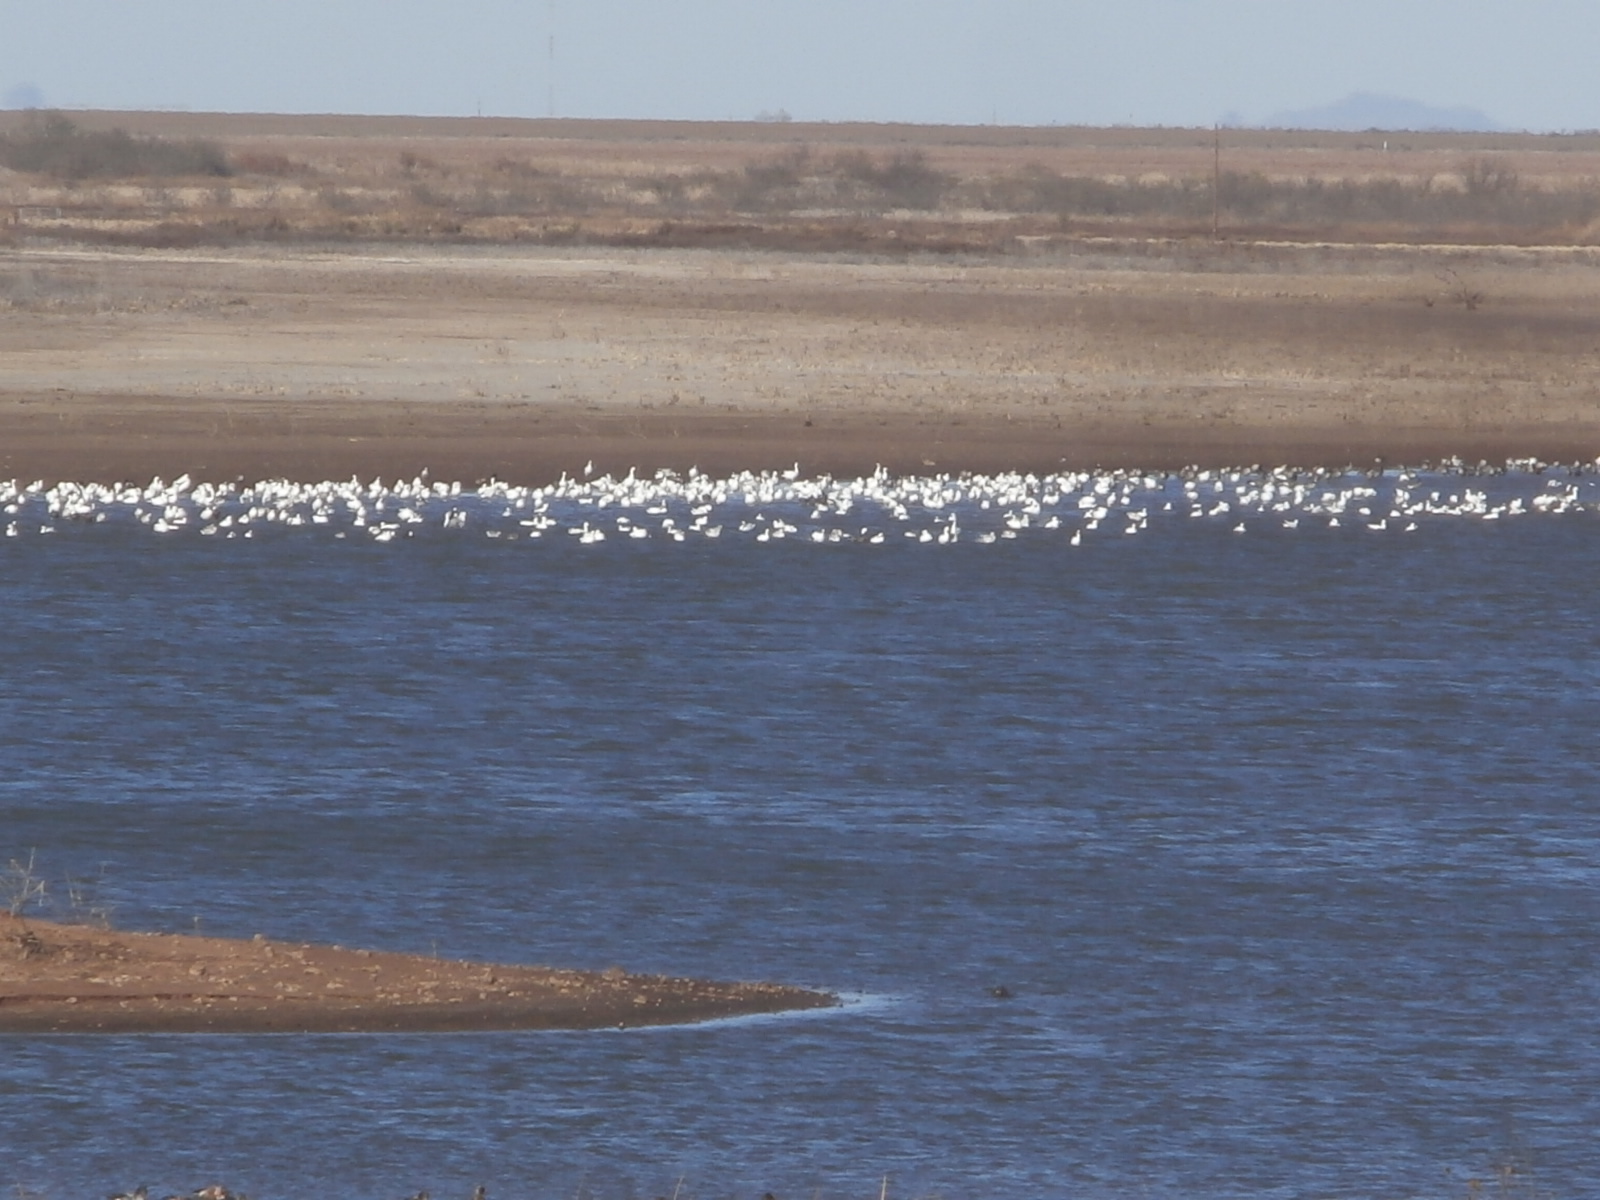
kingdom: Animalia
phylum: Chordata
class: Aves
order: Anseriformes
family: Anatidae
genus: Anser
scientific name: Anser caerulescens
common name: Snow goose
